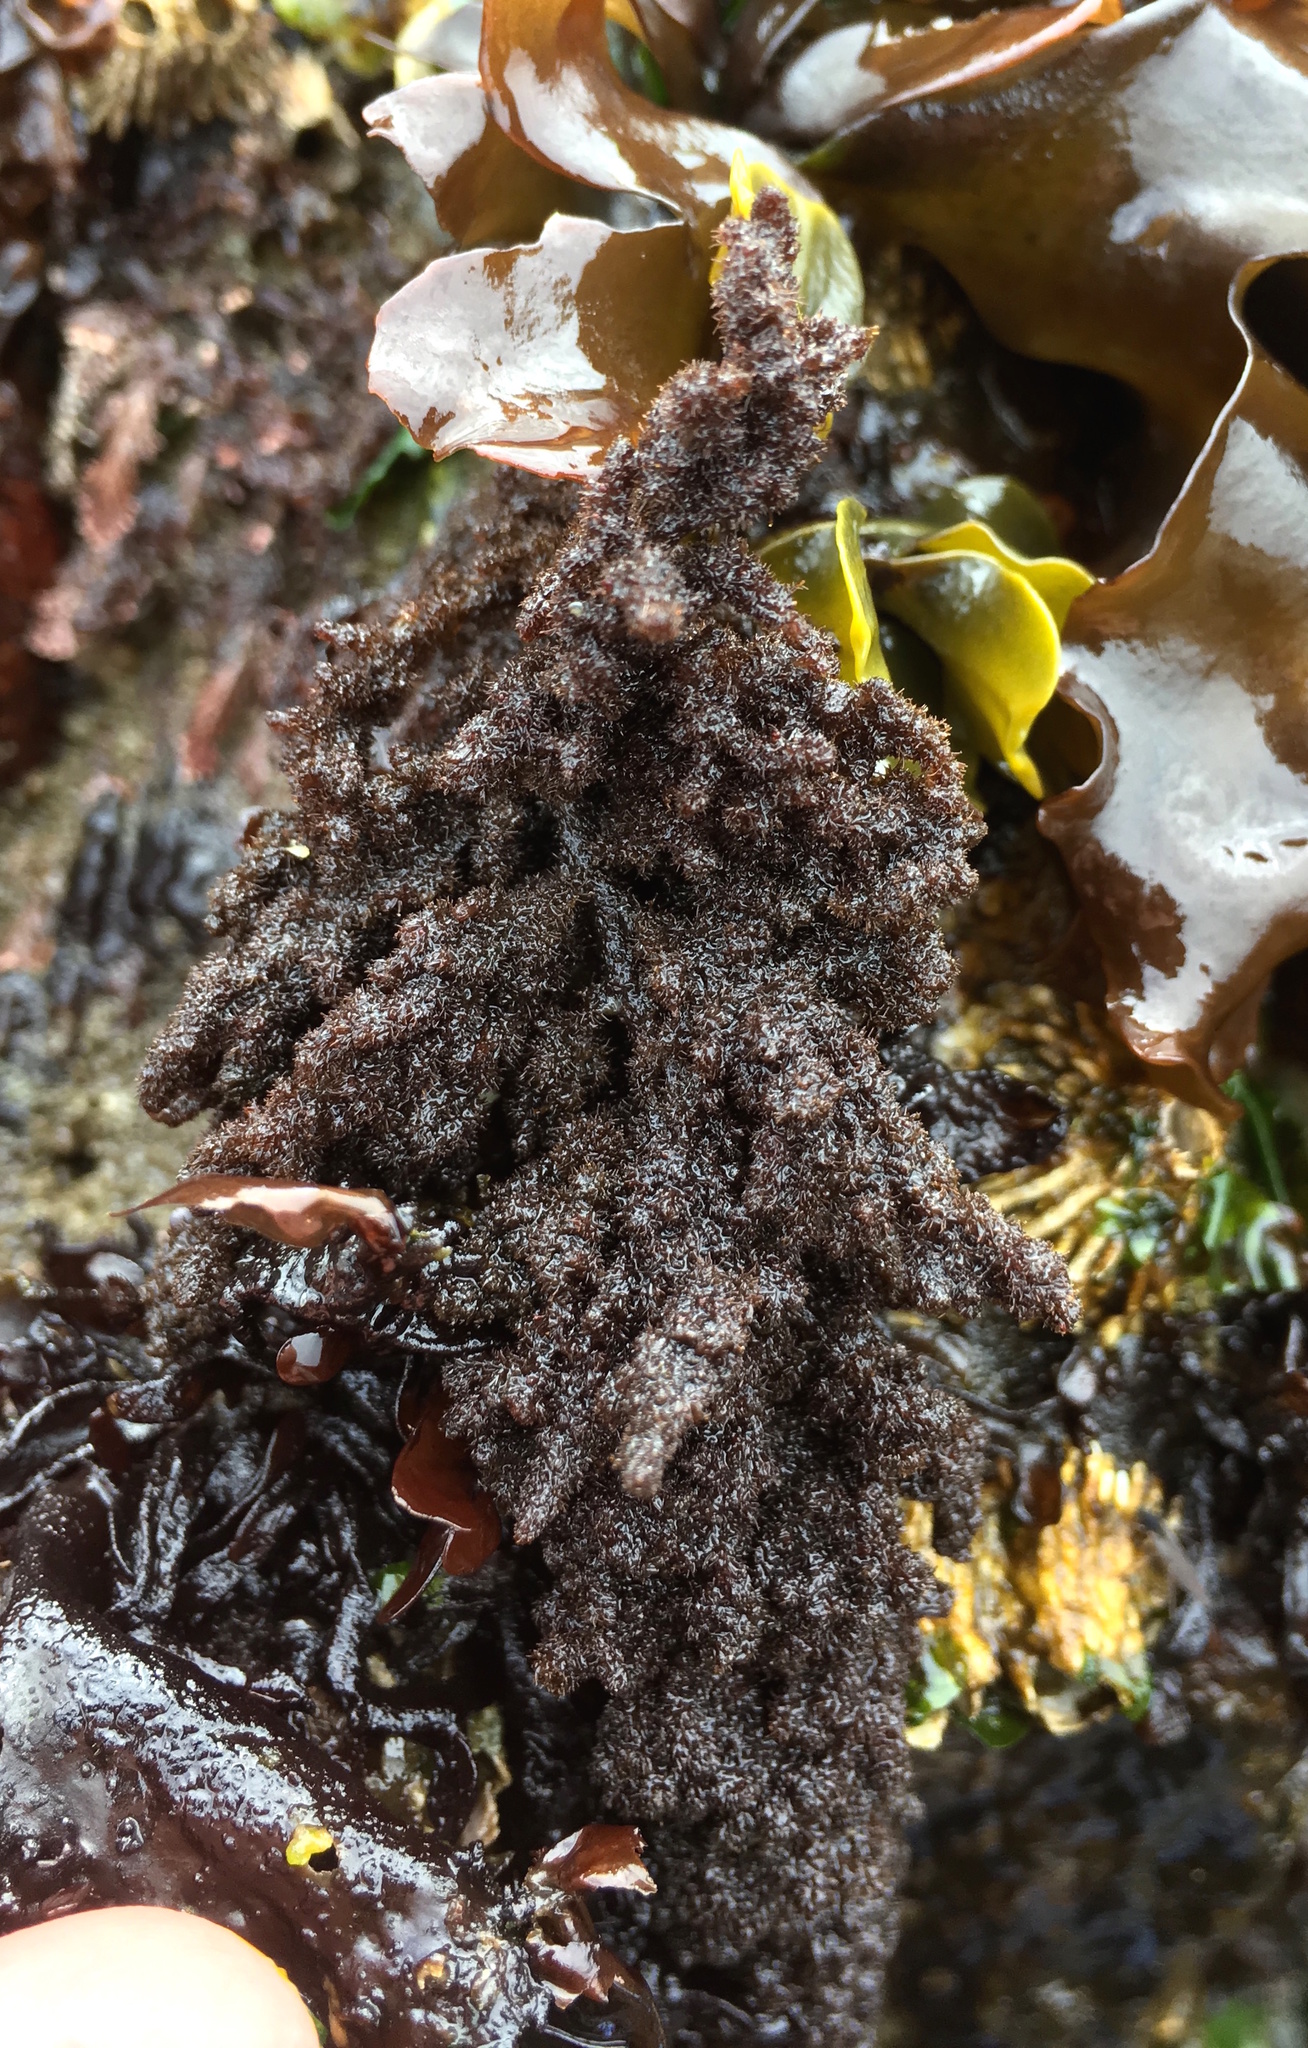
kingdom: Plantae
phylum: Rhodophyta
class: Florideophyceae
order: Ceramiales
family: Callithamniaceae
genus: Callithamnion
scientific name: Callithamnion pikeanum
